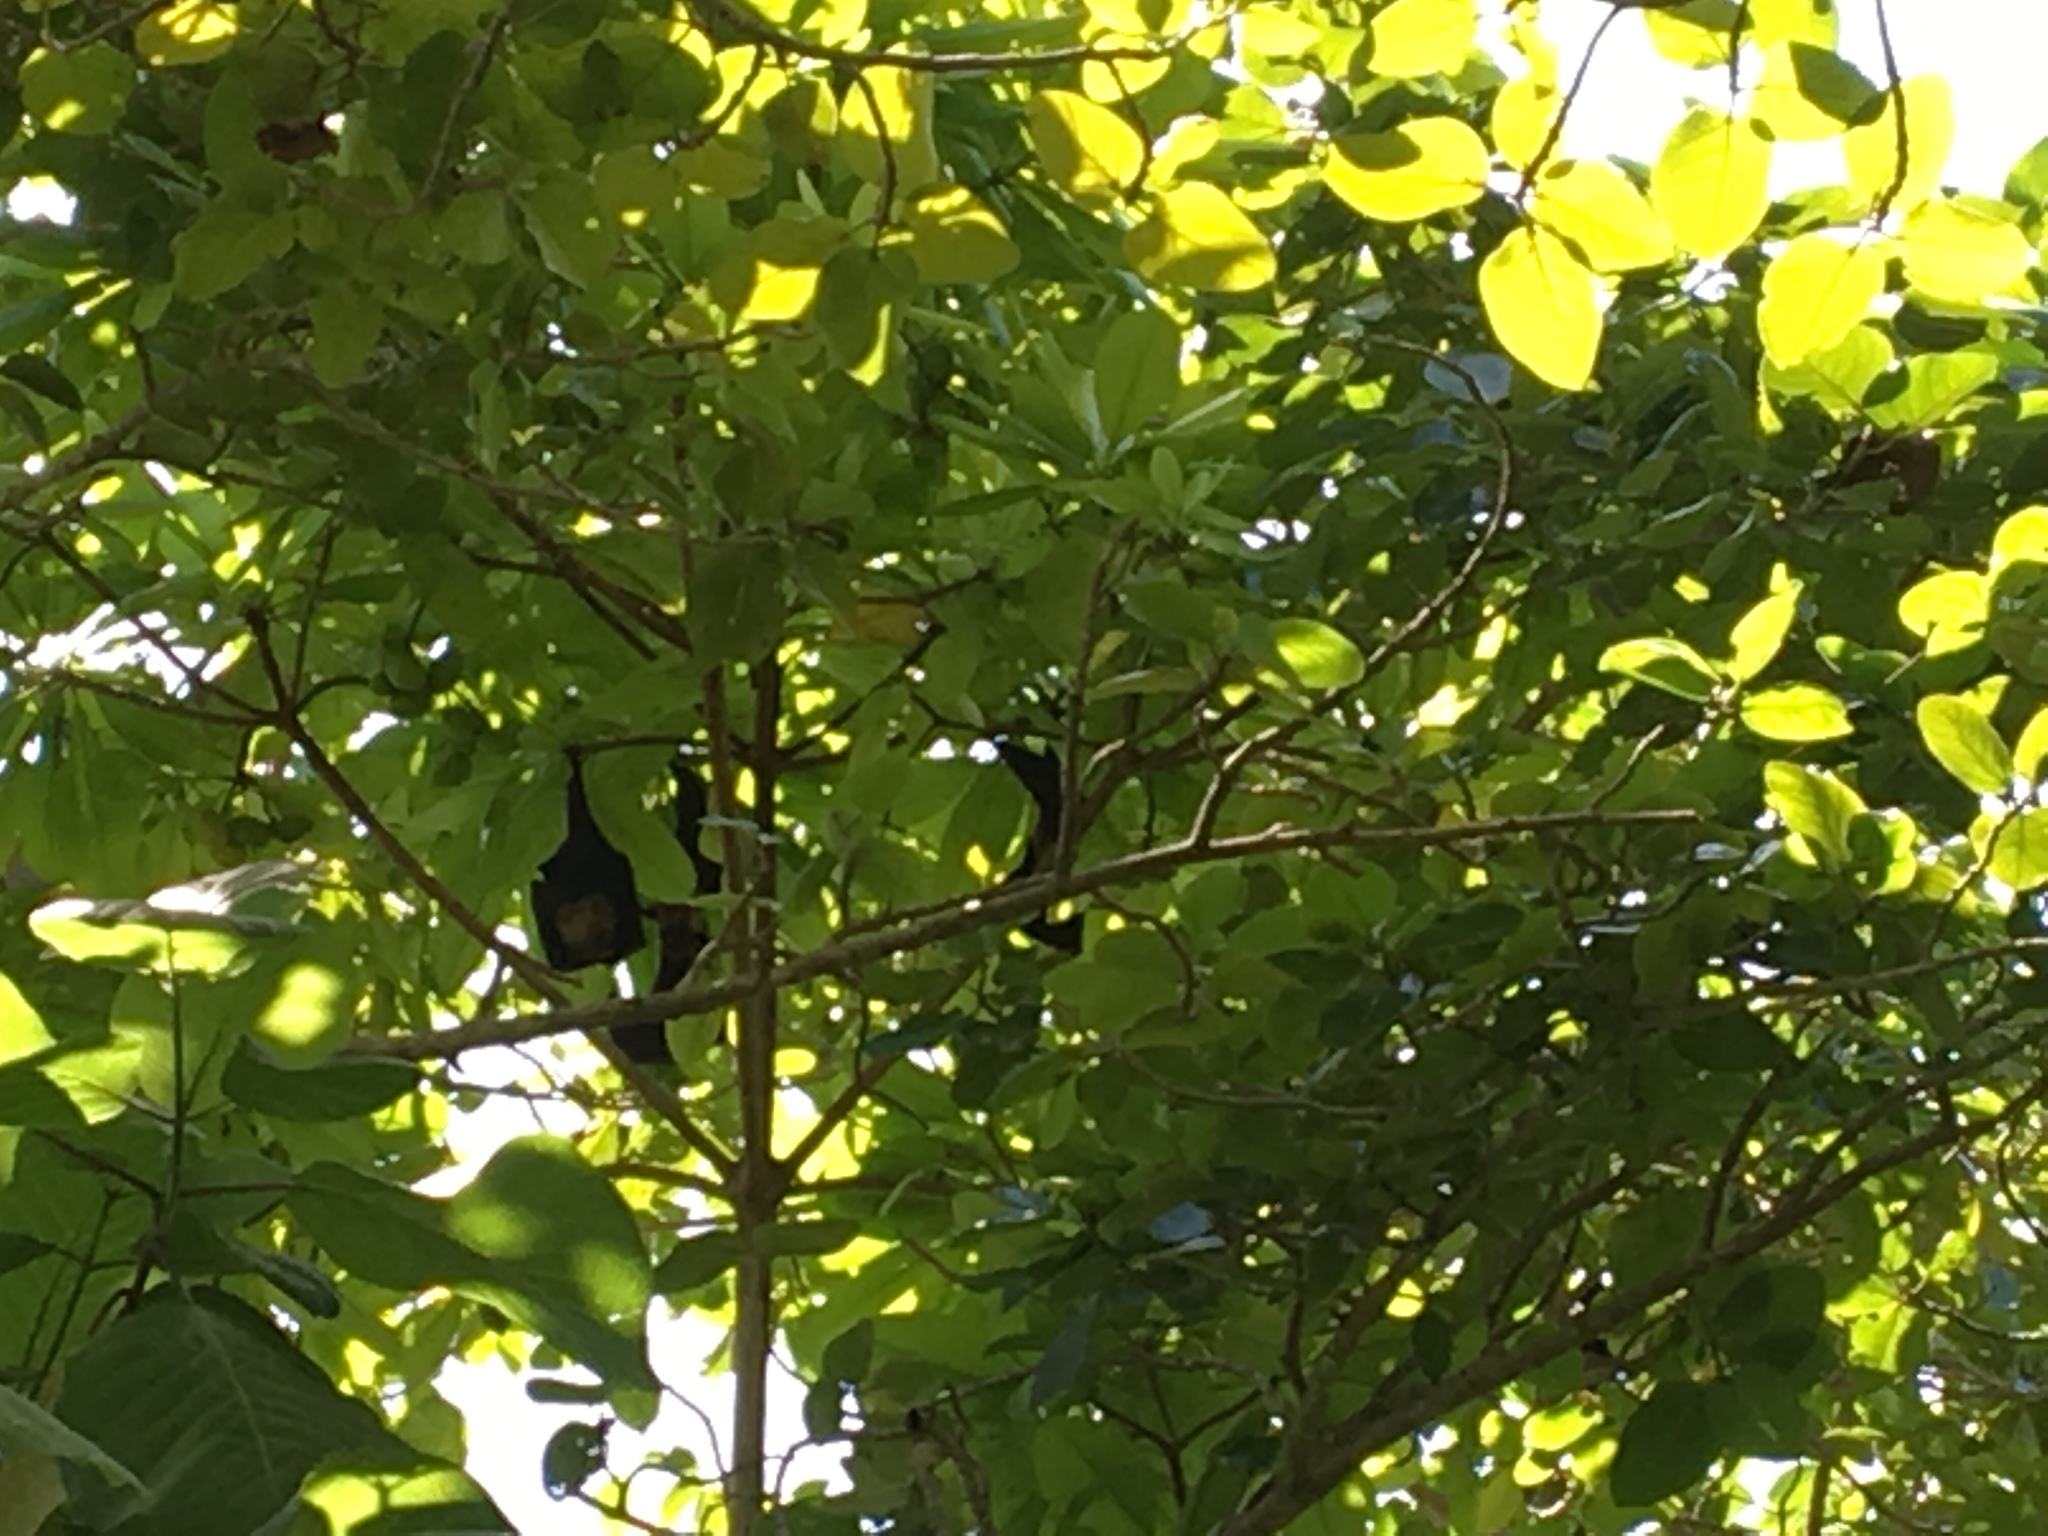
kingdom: Animalia
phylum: Chordata
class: Mammalia
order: Chiroptera
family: Pteropodidae
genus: Pteropus
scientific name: Pteropus vampyrus
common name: Large flying fox
